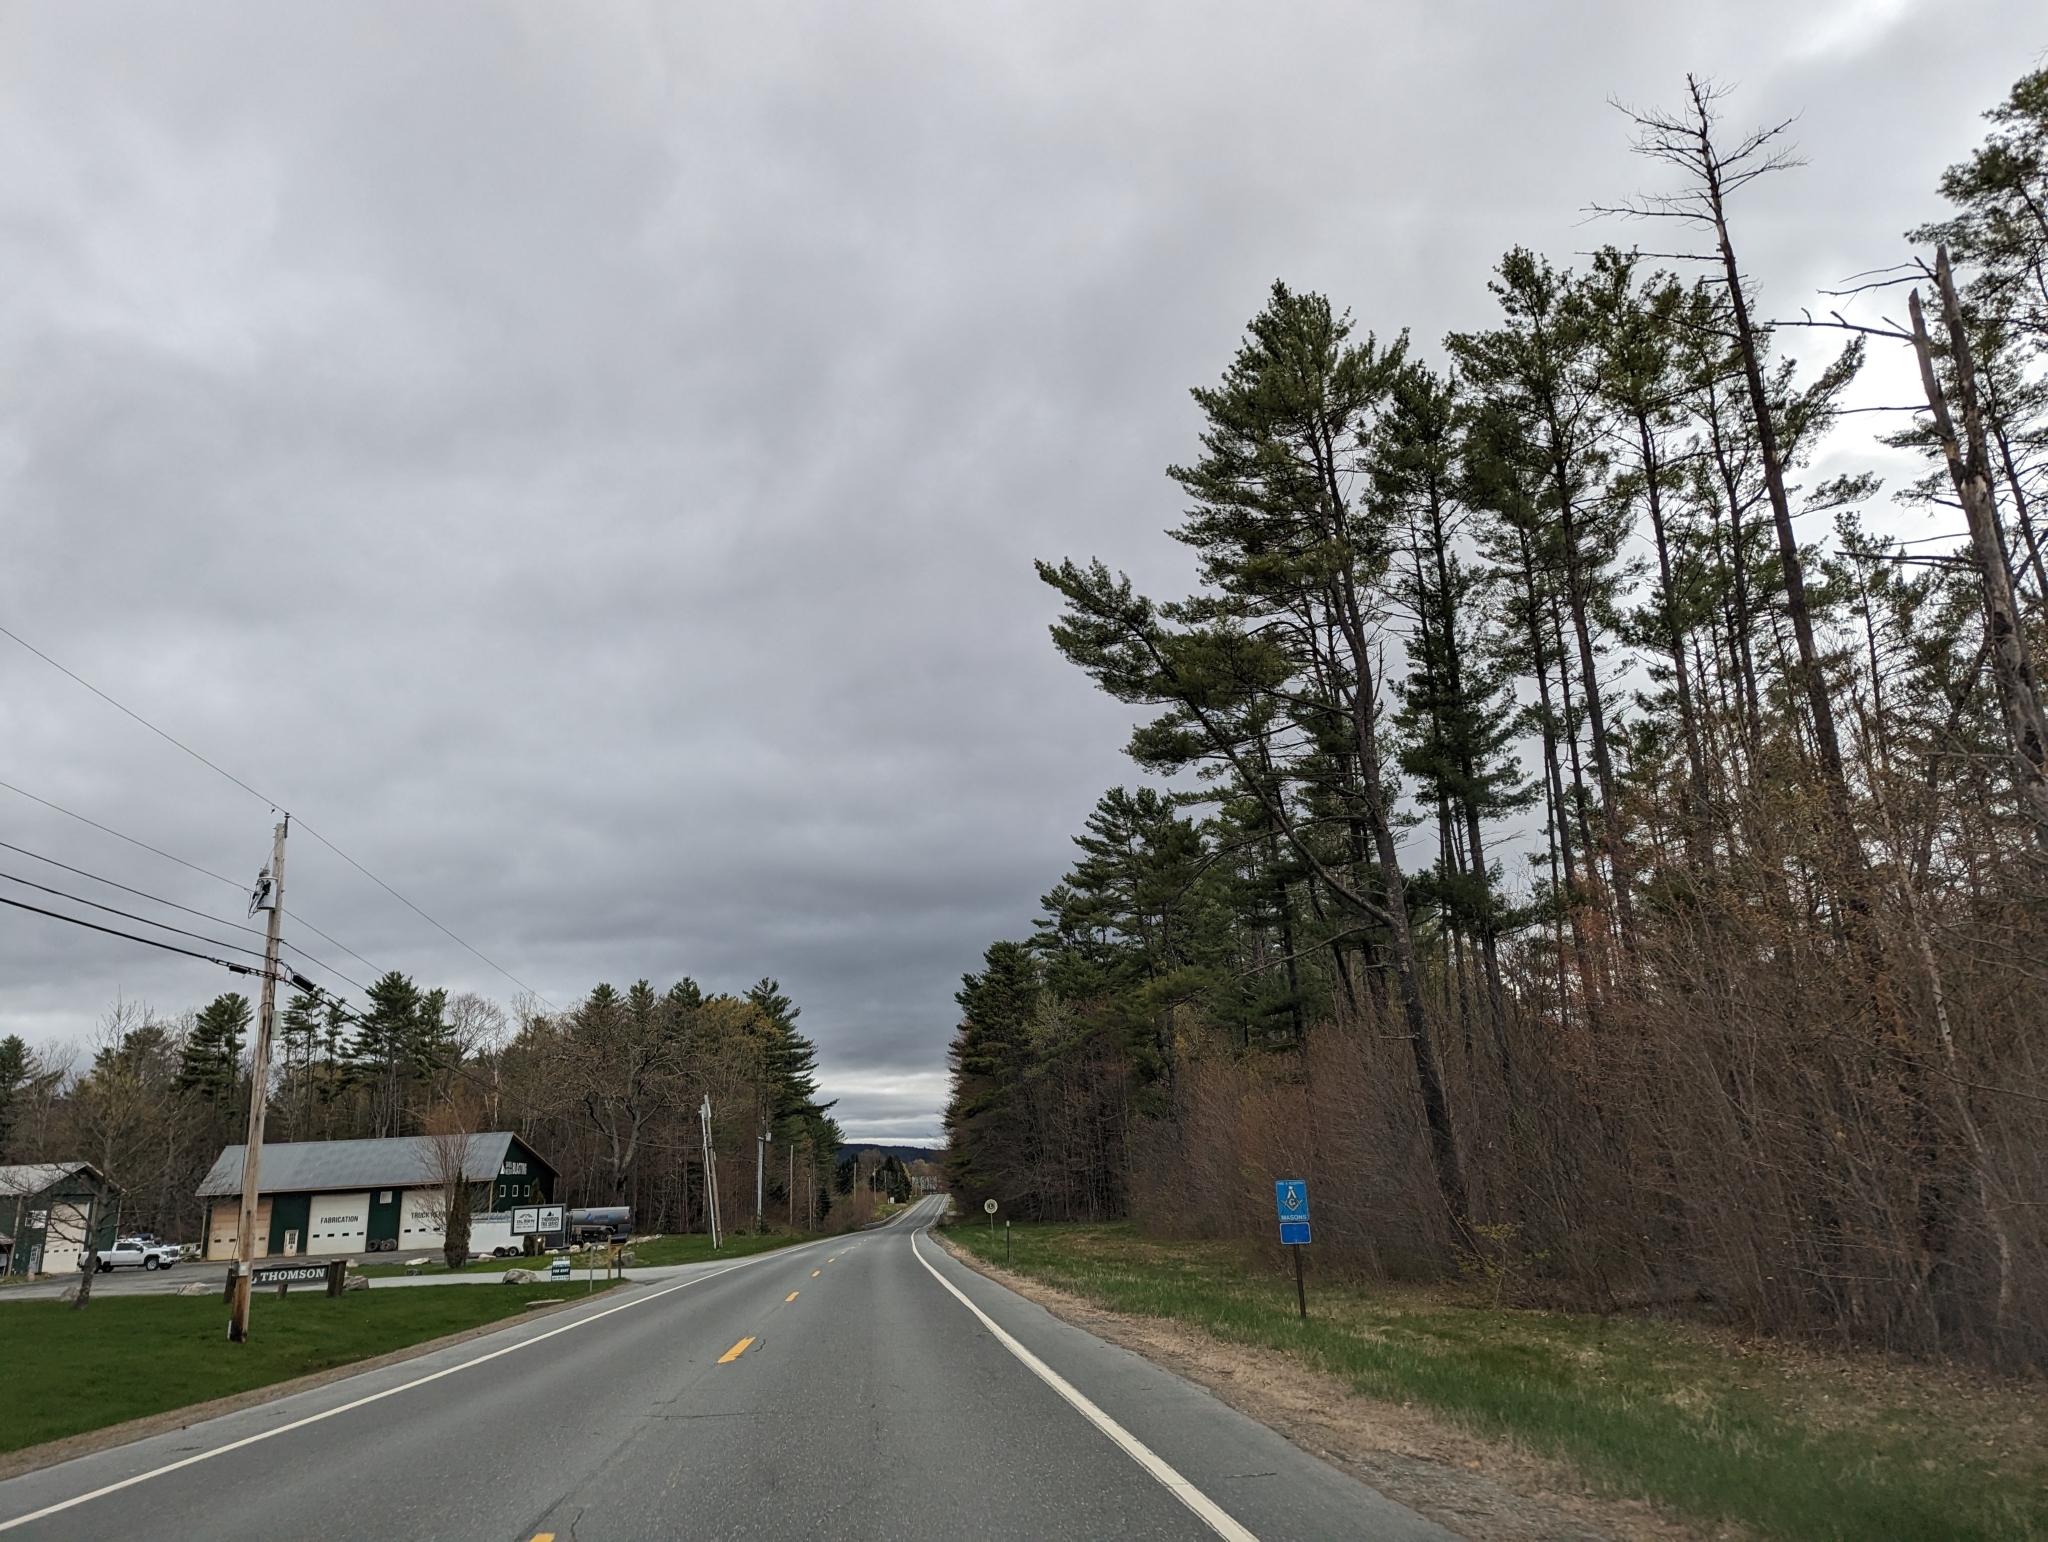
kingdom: Plantae
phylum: Tracheophyta
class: Pinopsida
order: Pinales
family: Pinaceae
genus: Pinus
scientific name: Pinus strobus
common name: Weymouth pine
